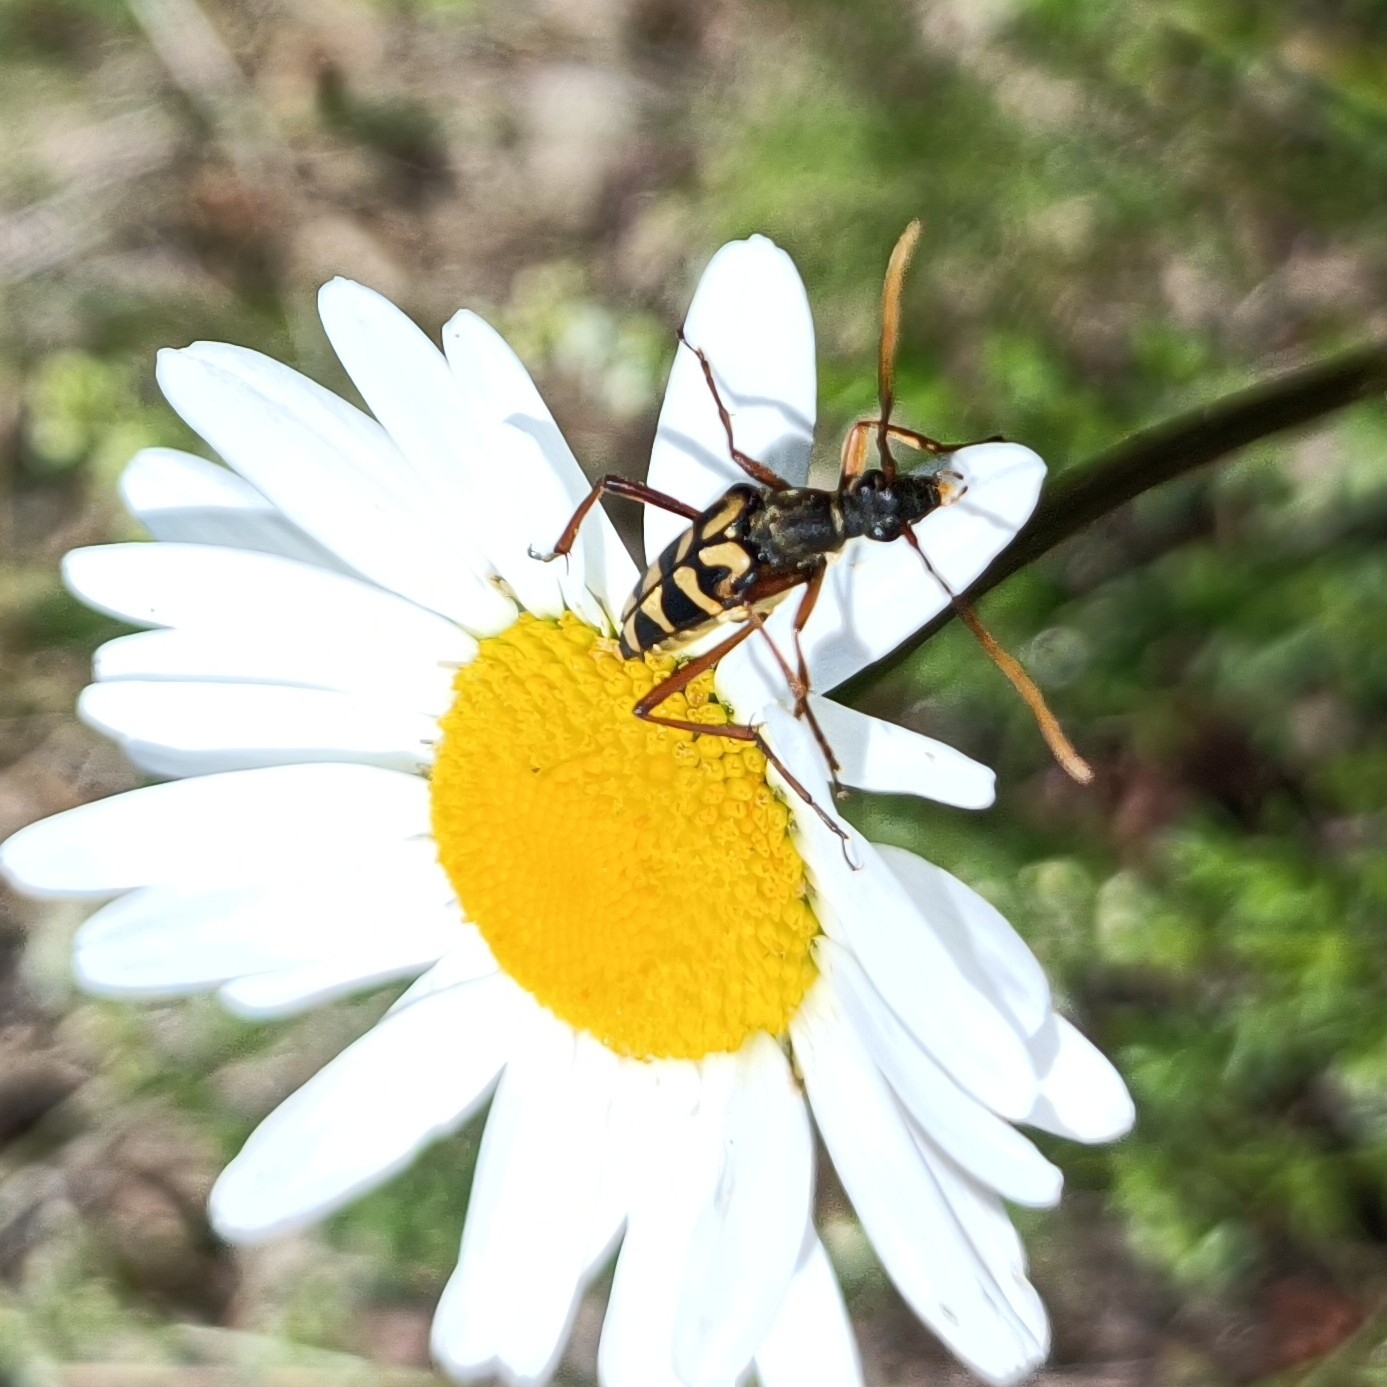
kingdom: Animalia
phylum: Arthropoda
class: Insecta
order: Coleoptera
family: Cerambycidae
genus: Leptura
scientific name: Leptura annularis
